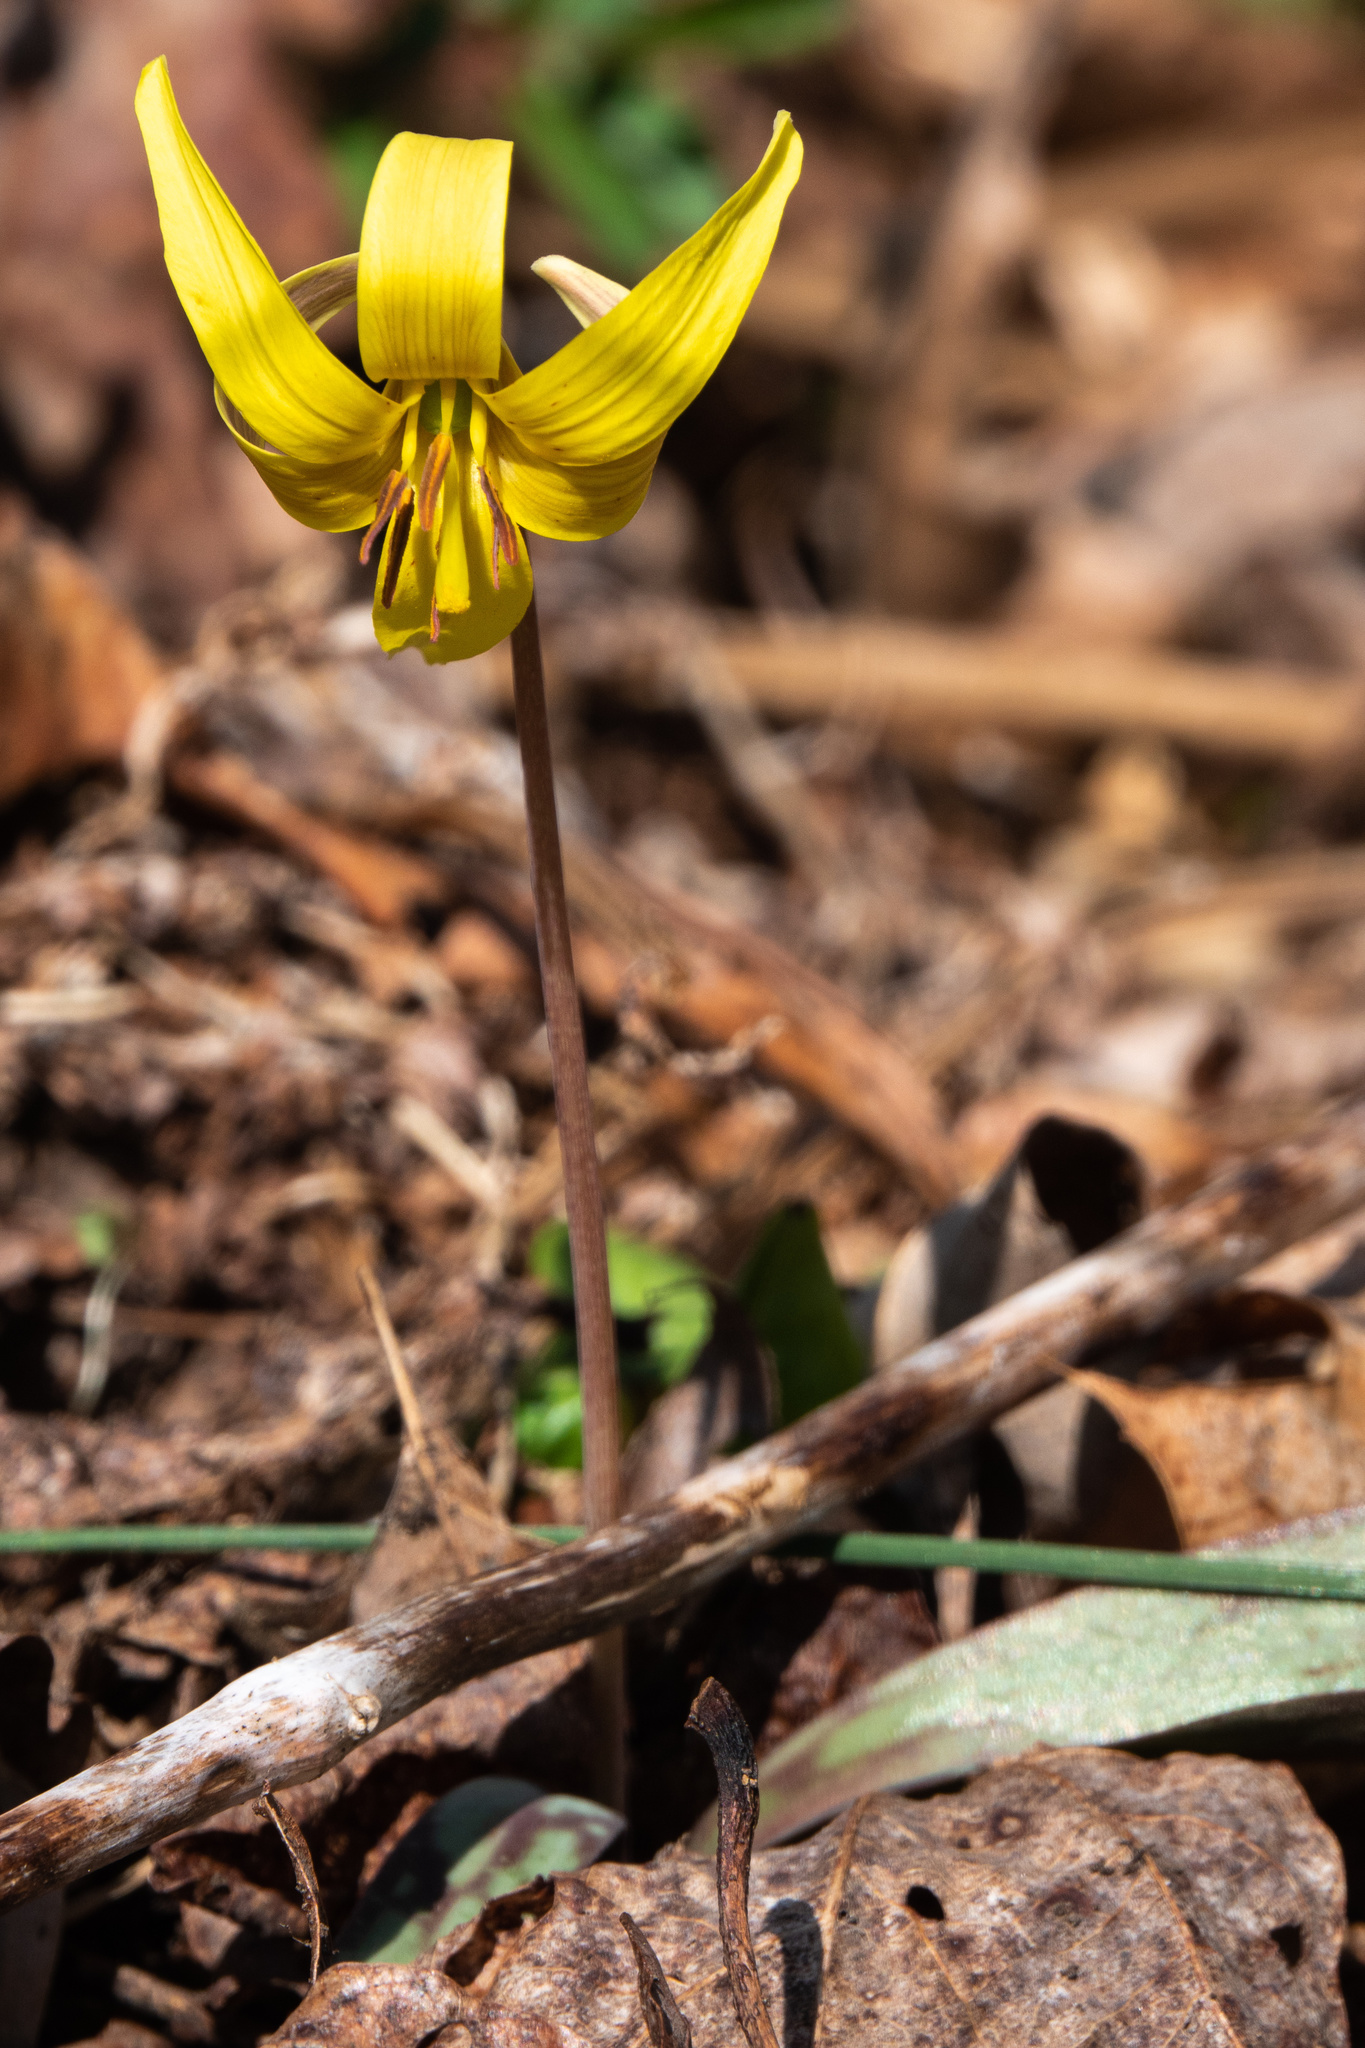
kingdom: Plantae
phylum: Tracheophyta
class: Liliopsida
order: Liliales
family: Liliaceae
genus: Erythronium
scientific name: Erythronium americanum
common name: Yellow adder's-tongue
